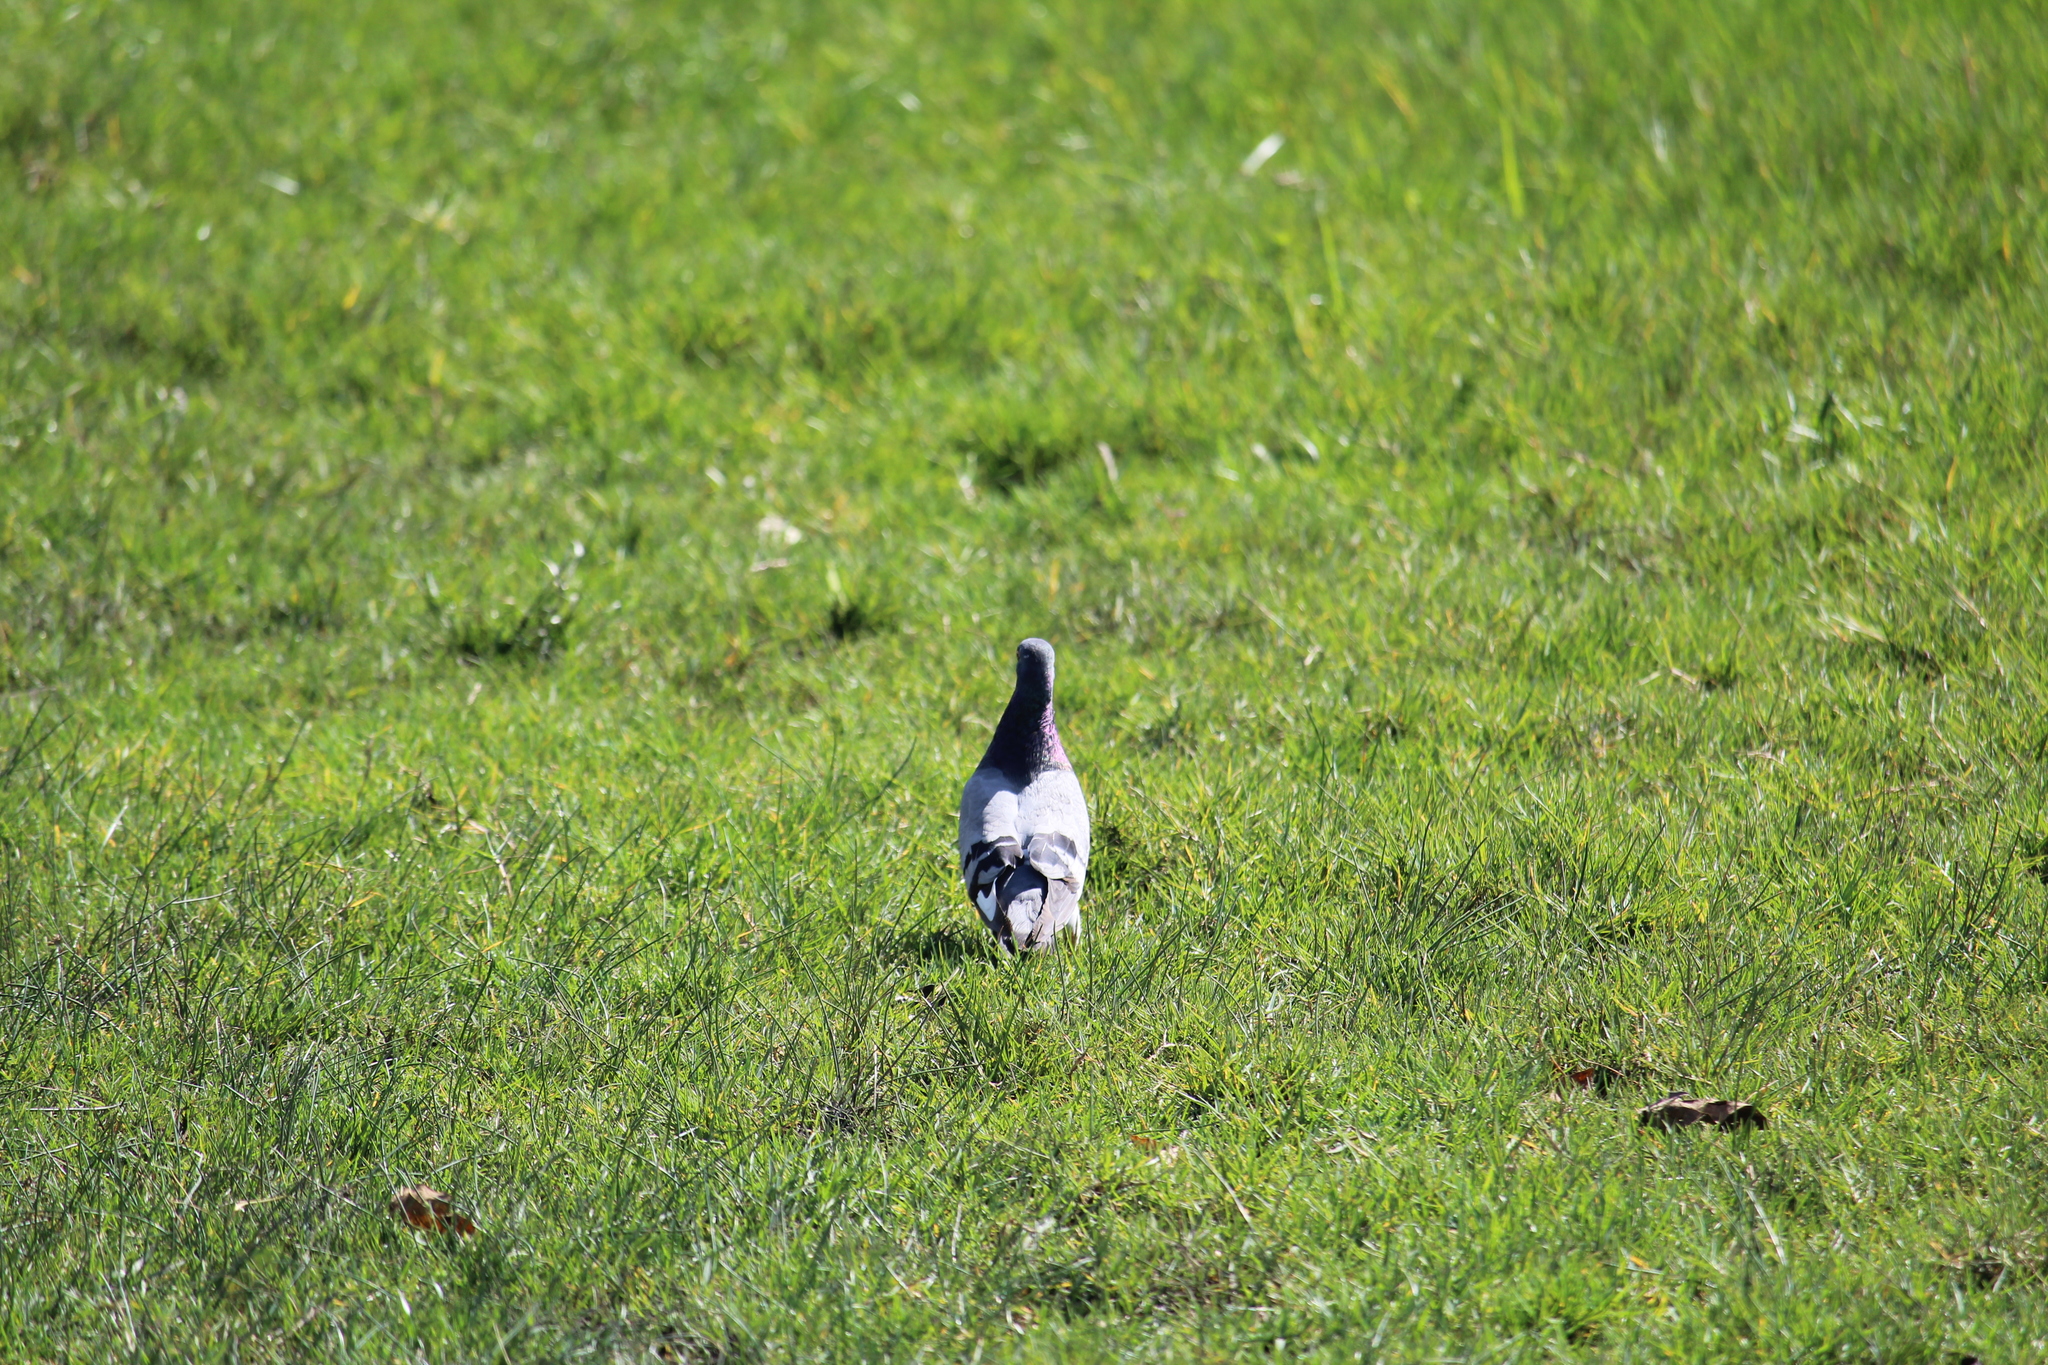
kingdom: Animalia
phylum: Chordata
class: Aves
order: Columbiformes
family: Columbidae
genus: Columba
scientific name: Columba livia
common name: Rock pigeon
